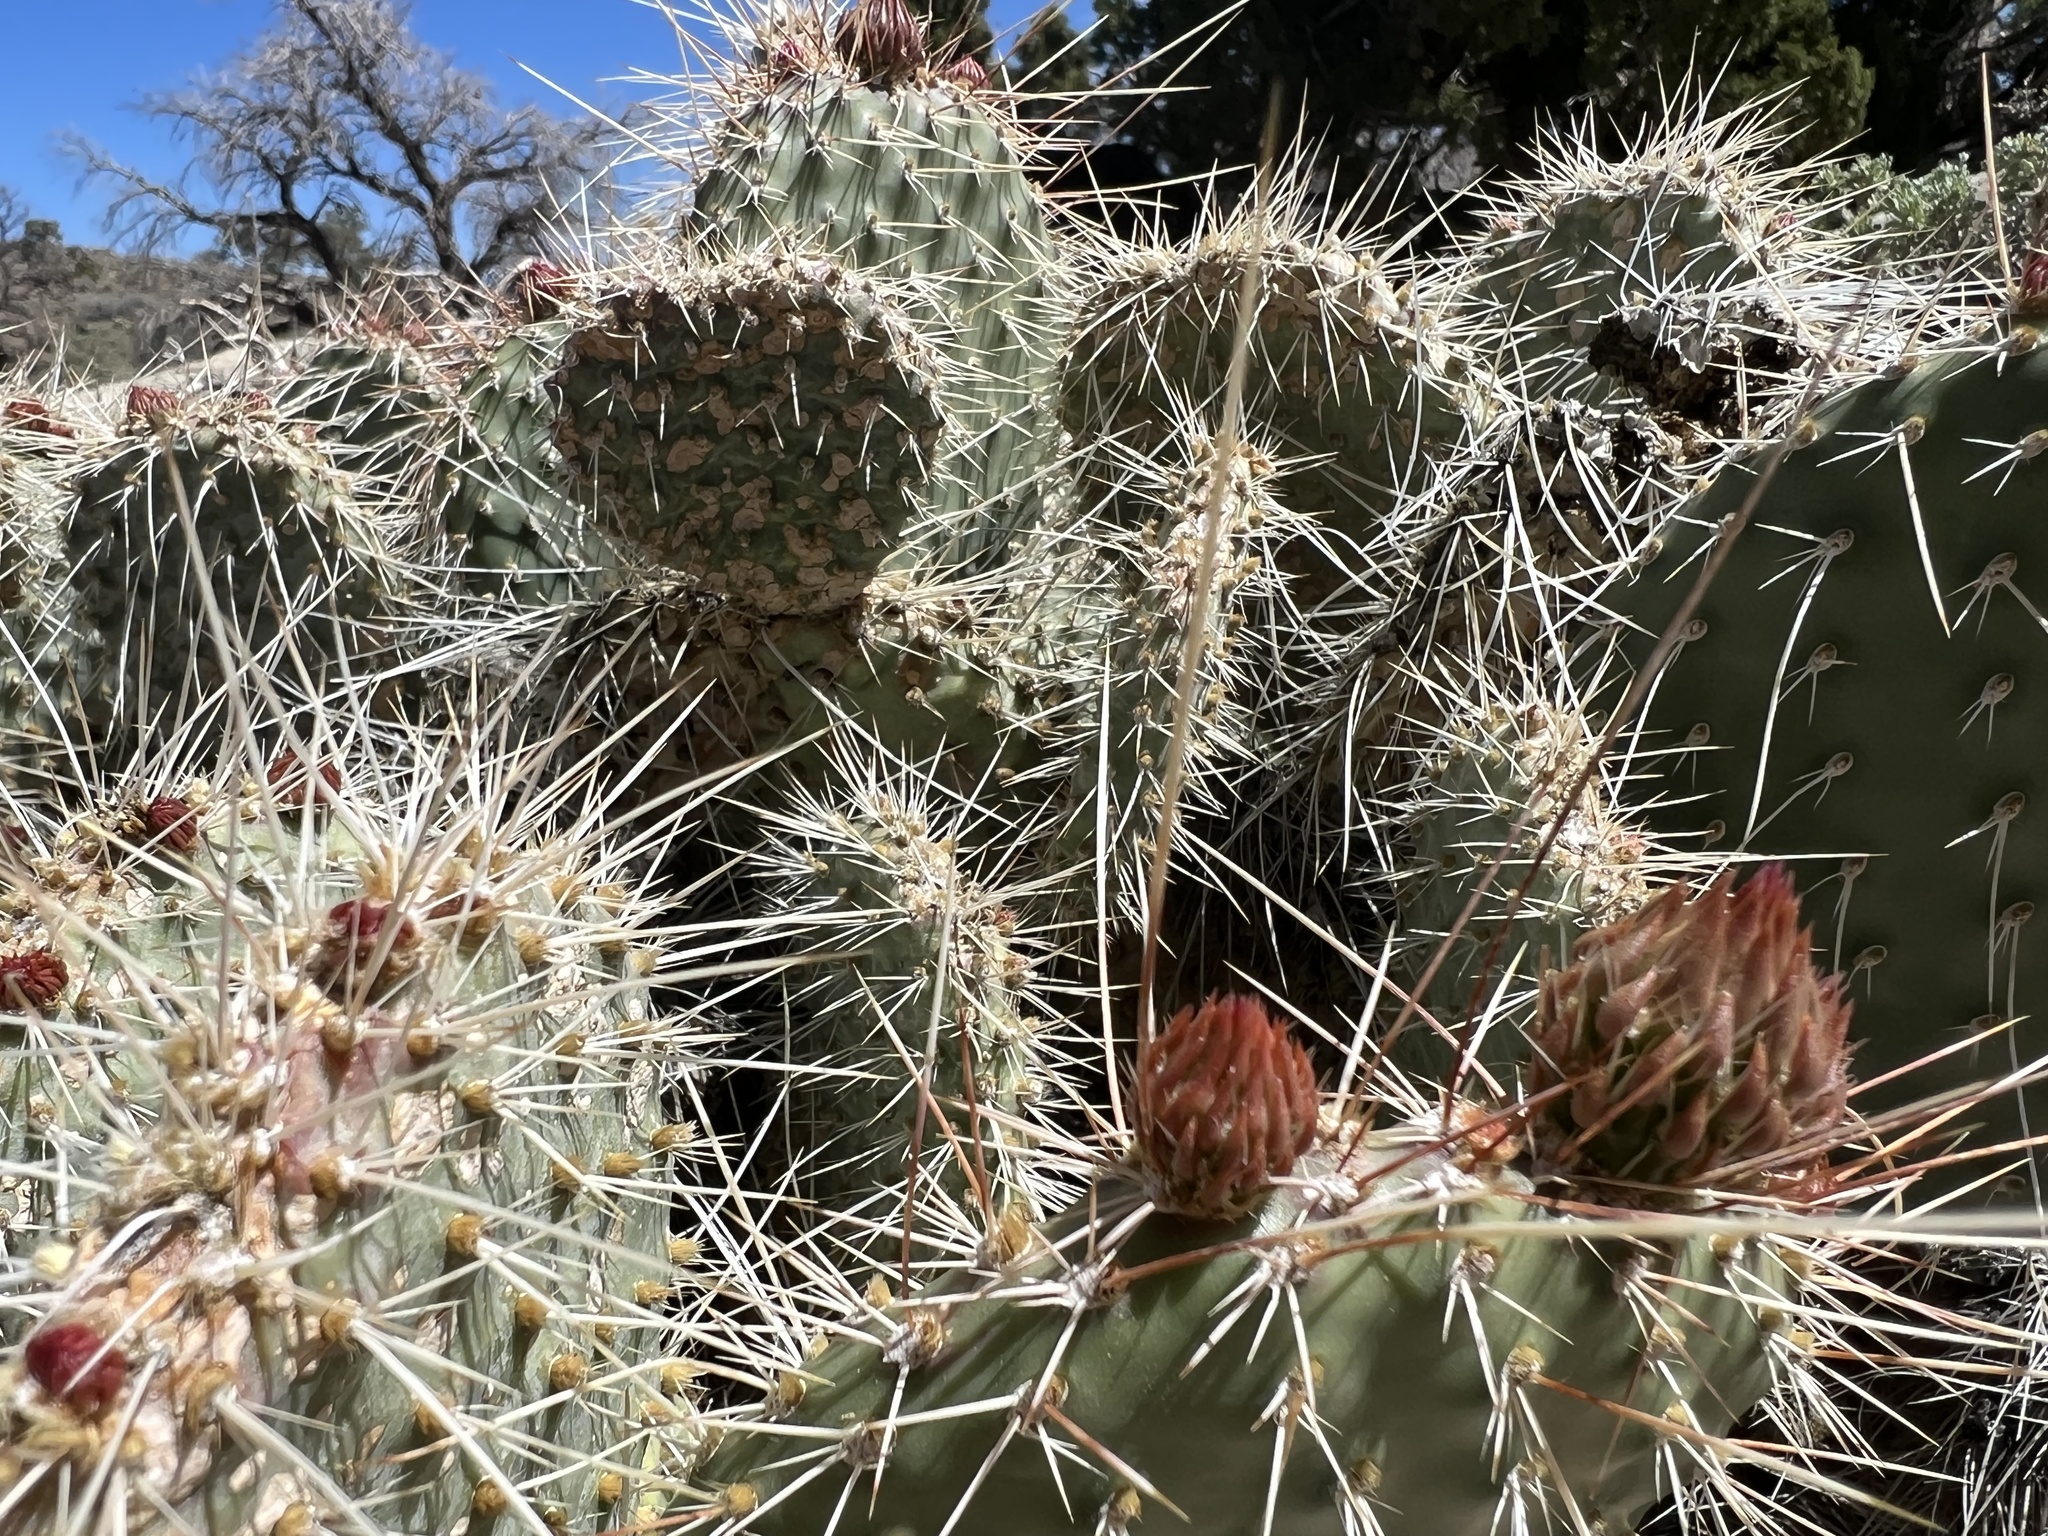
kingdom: Plantae
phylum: Tracheophyta
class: Magnoliopsida
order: Caryophyllales
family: Cactaceae
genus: Opuntia
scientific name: Opuntia polyacantha
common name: Plains prickly-pear
